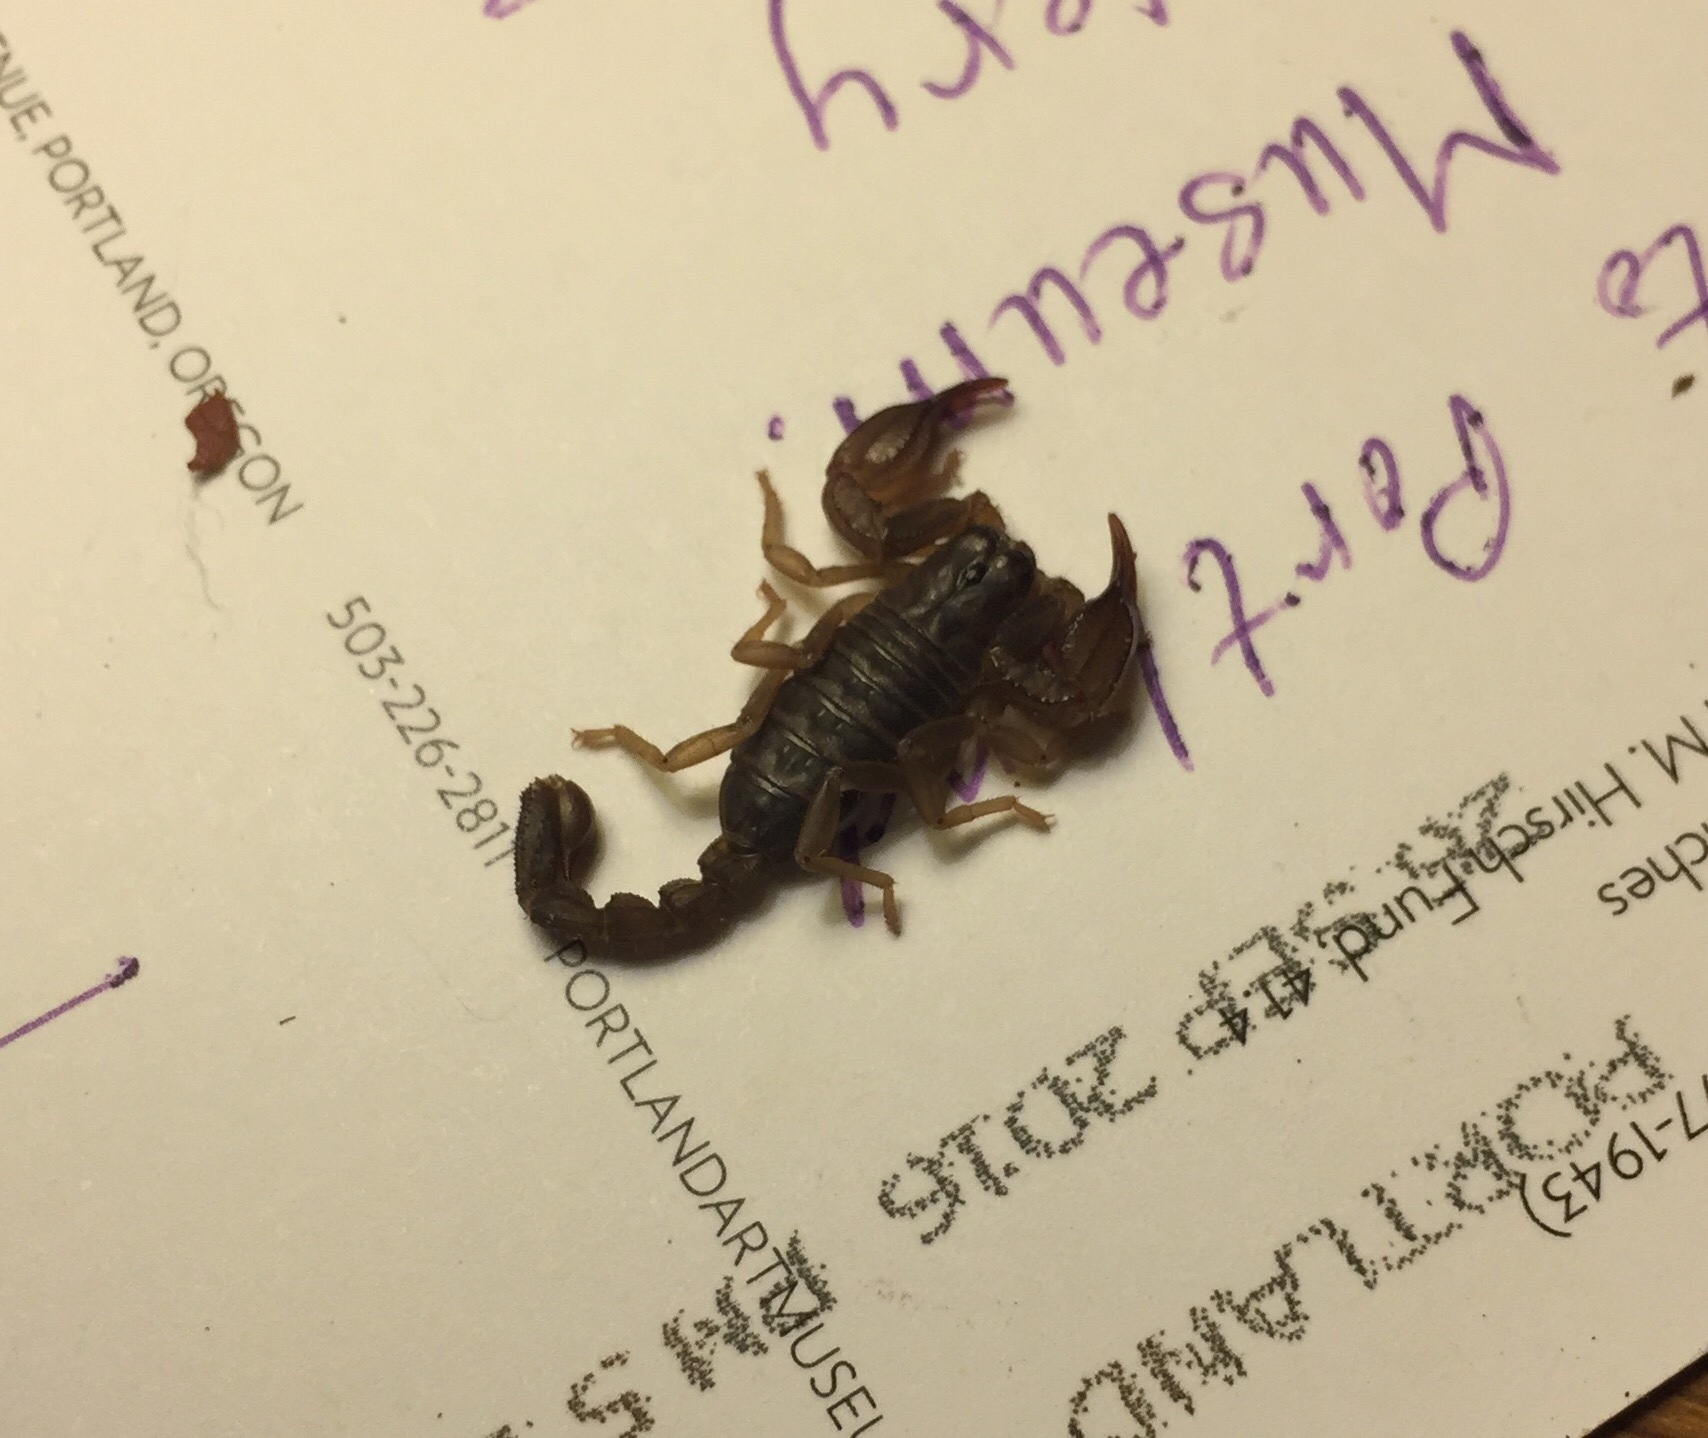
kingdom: Animalia
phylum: Arthropoda
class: Arachnida
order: Scorpiones
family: Chactidae
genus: Uroctonus
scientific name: Uroctonus mordax
